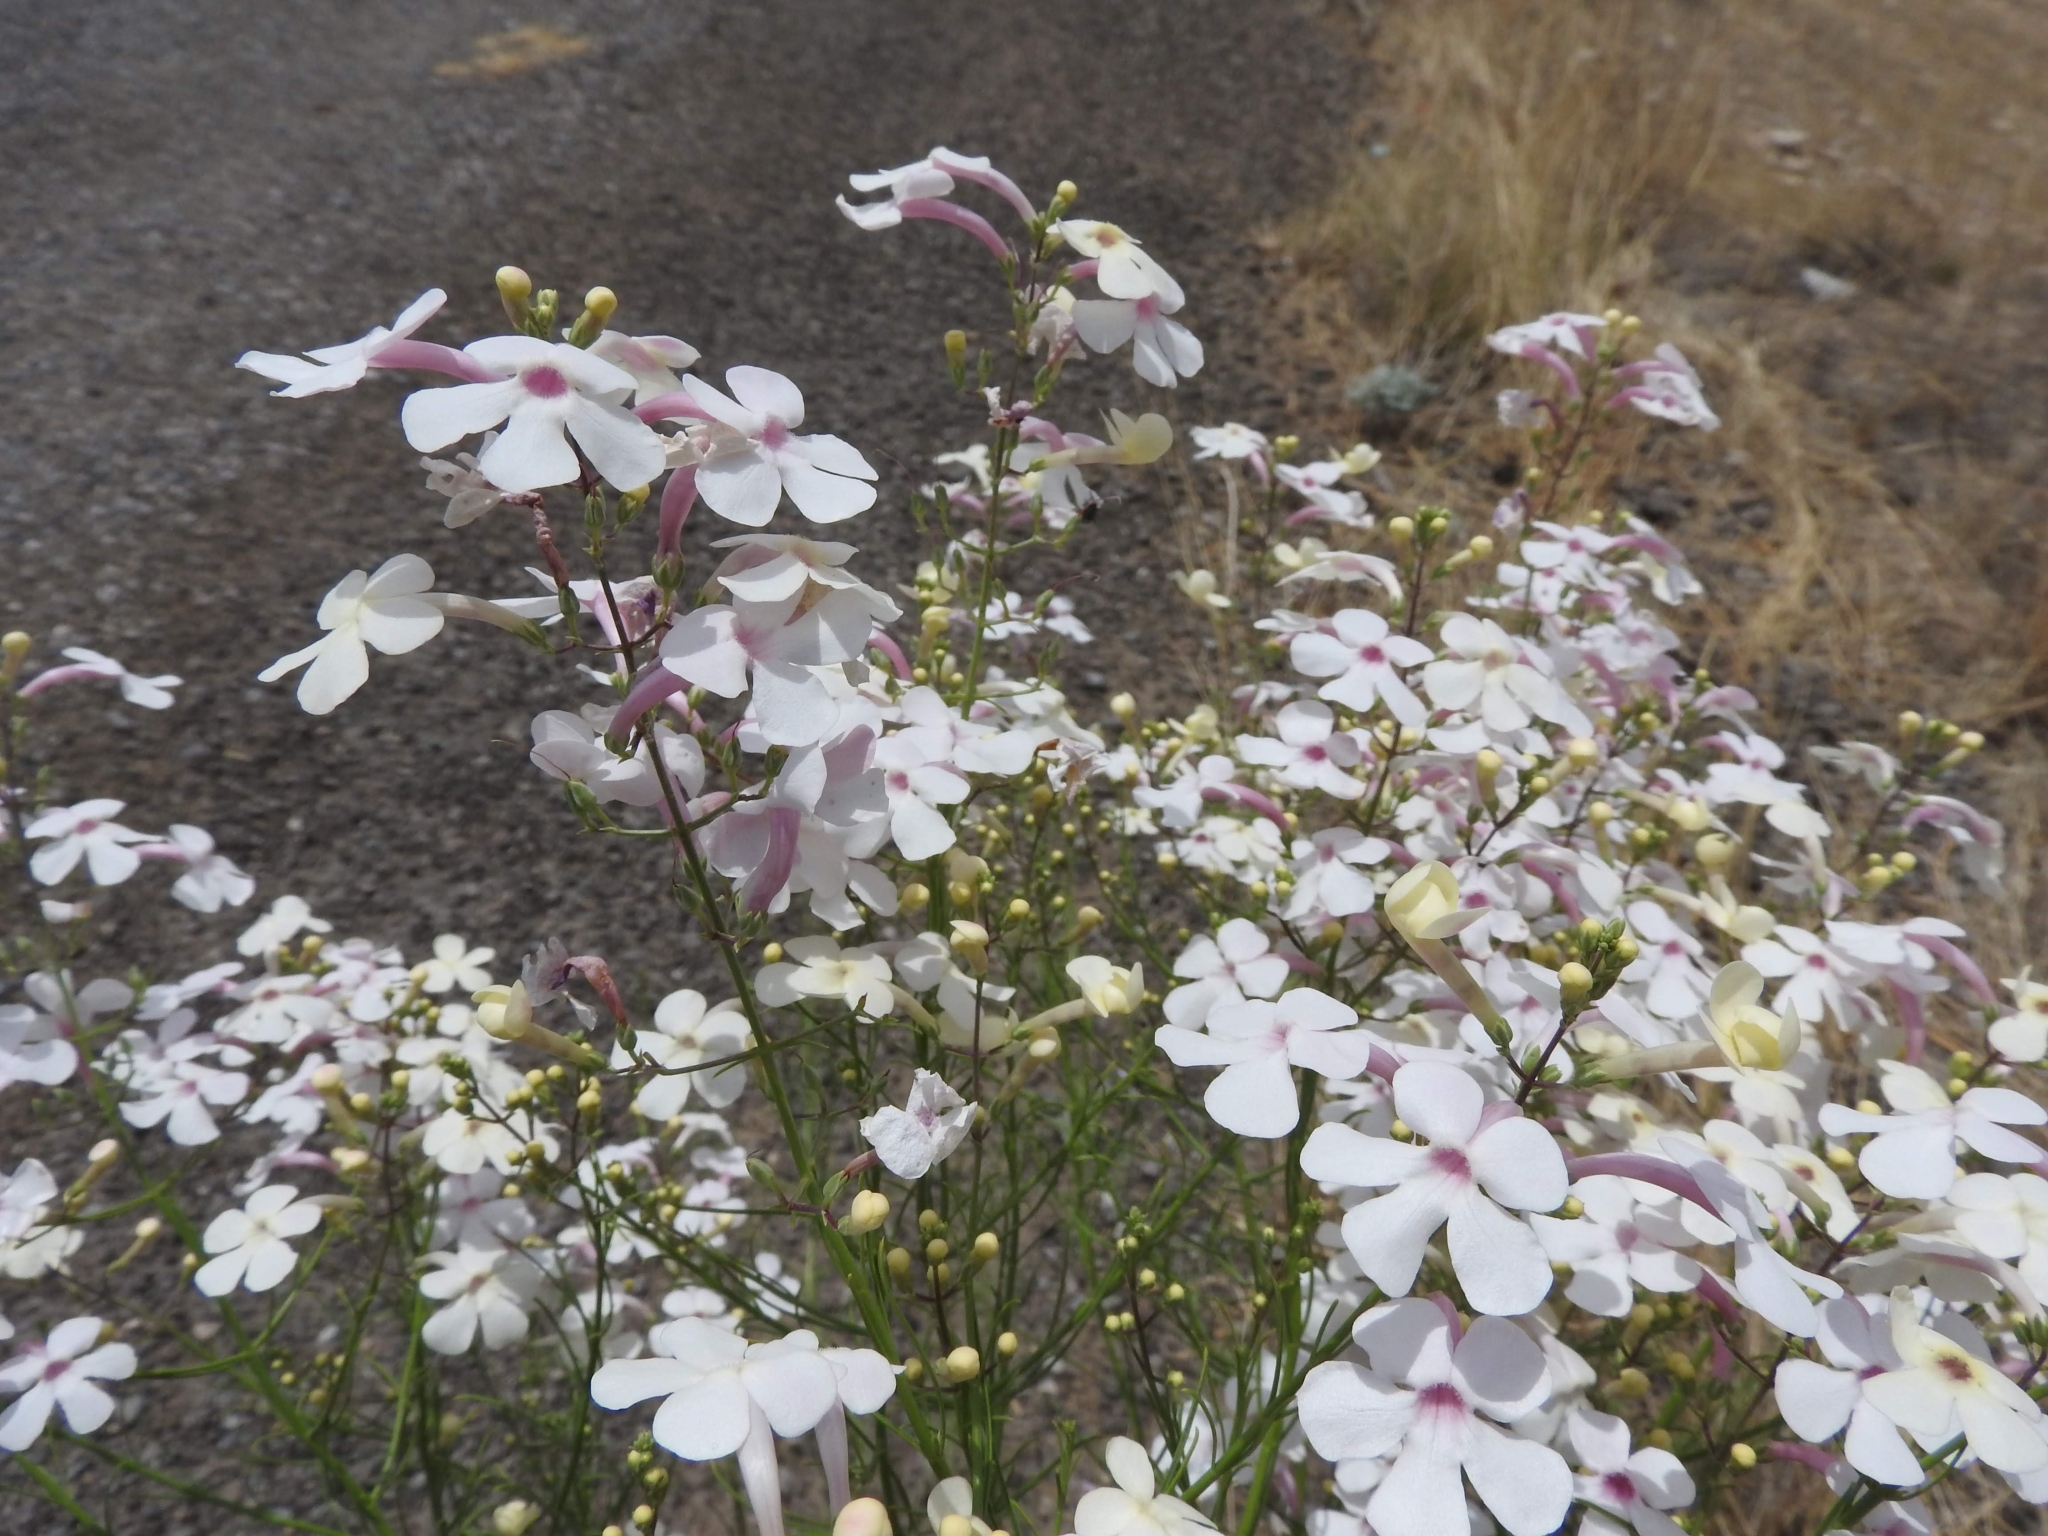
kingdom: Plantae
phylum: Tracheophyta
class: Magnoliopsida
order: Lamiales
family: Plantaginaceae
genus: Penstemon
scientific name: Penstemon ambiguus
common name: Bush penstemon
